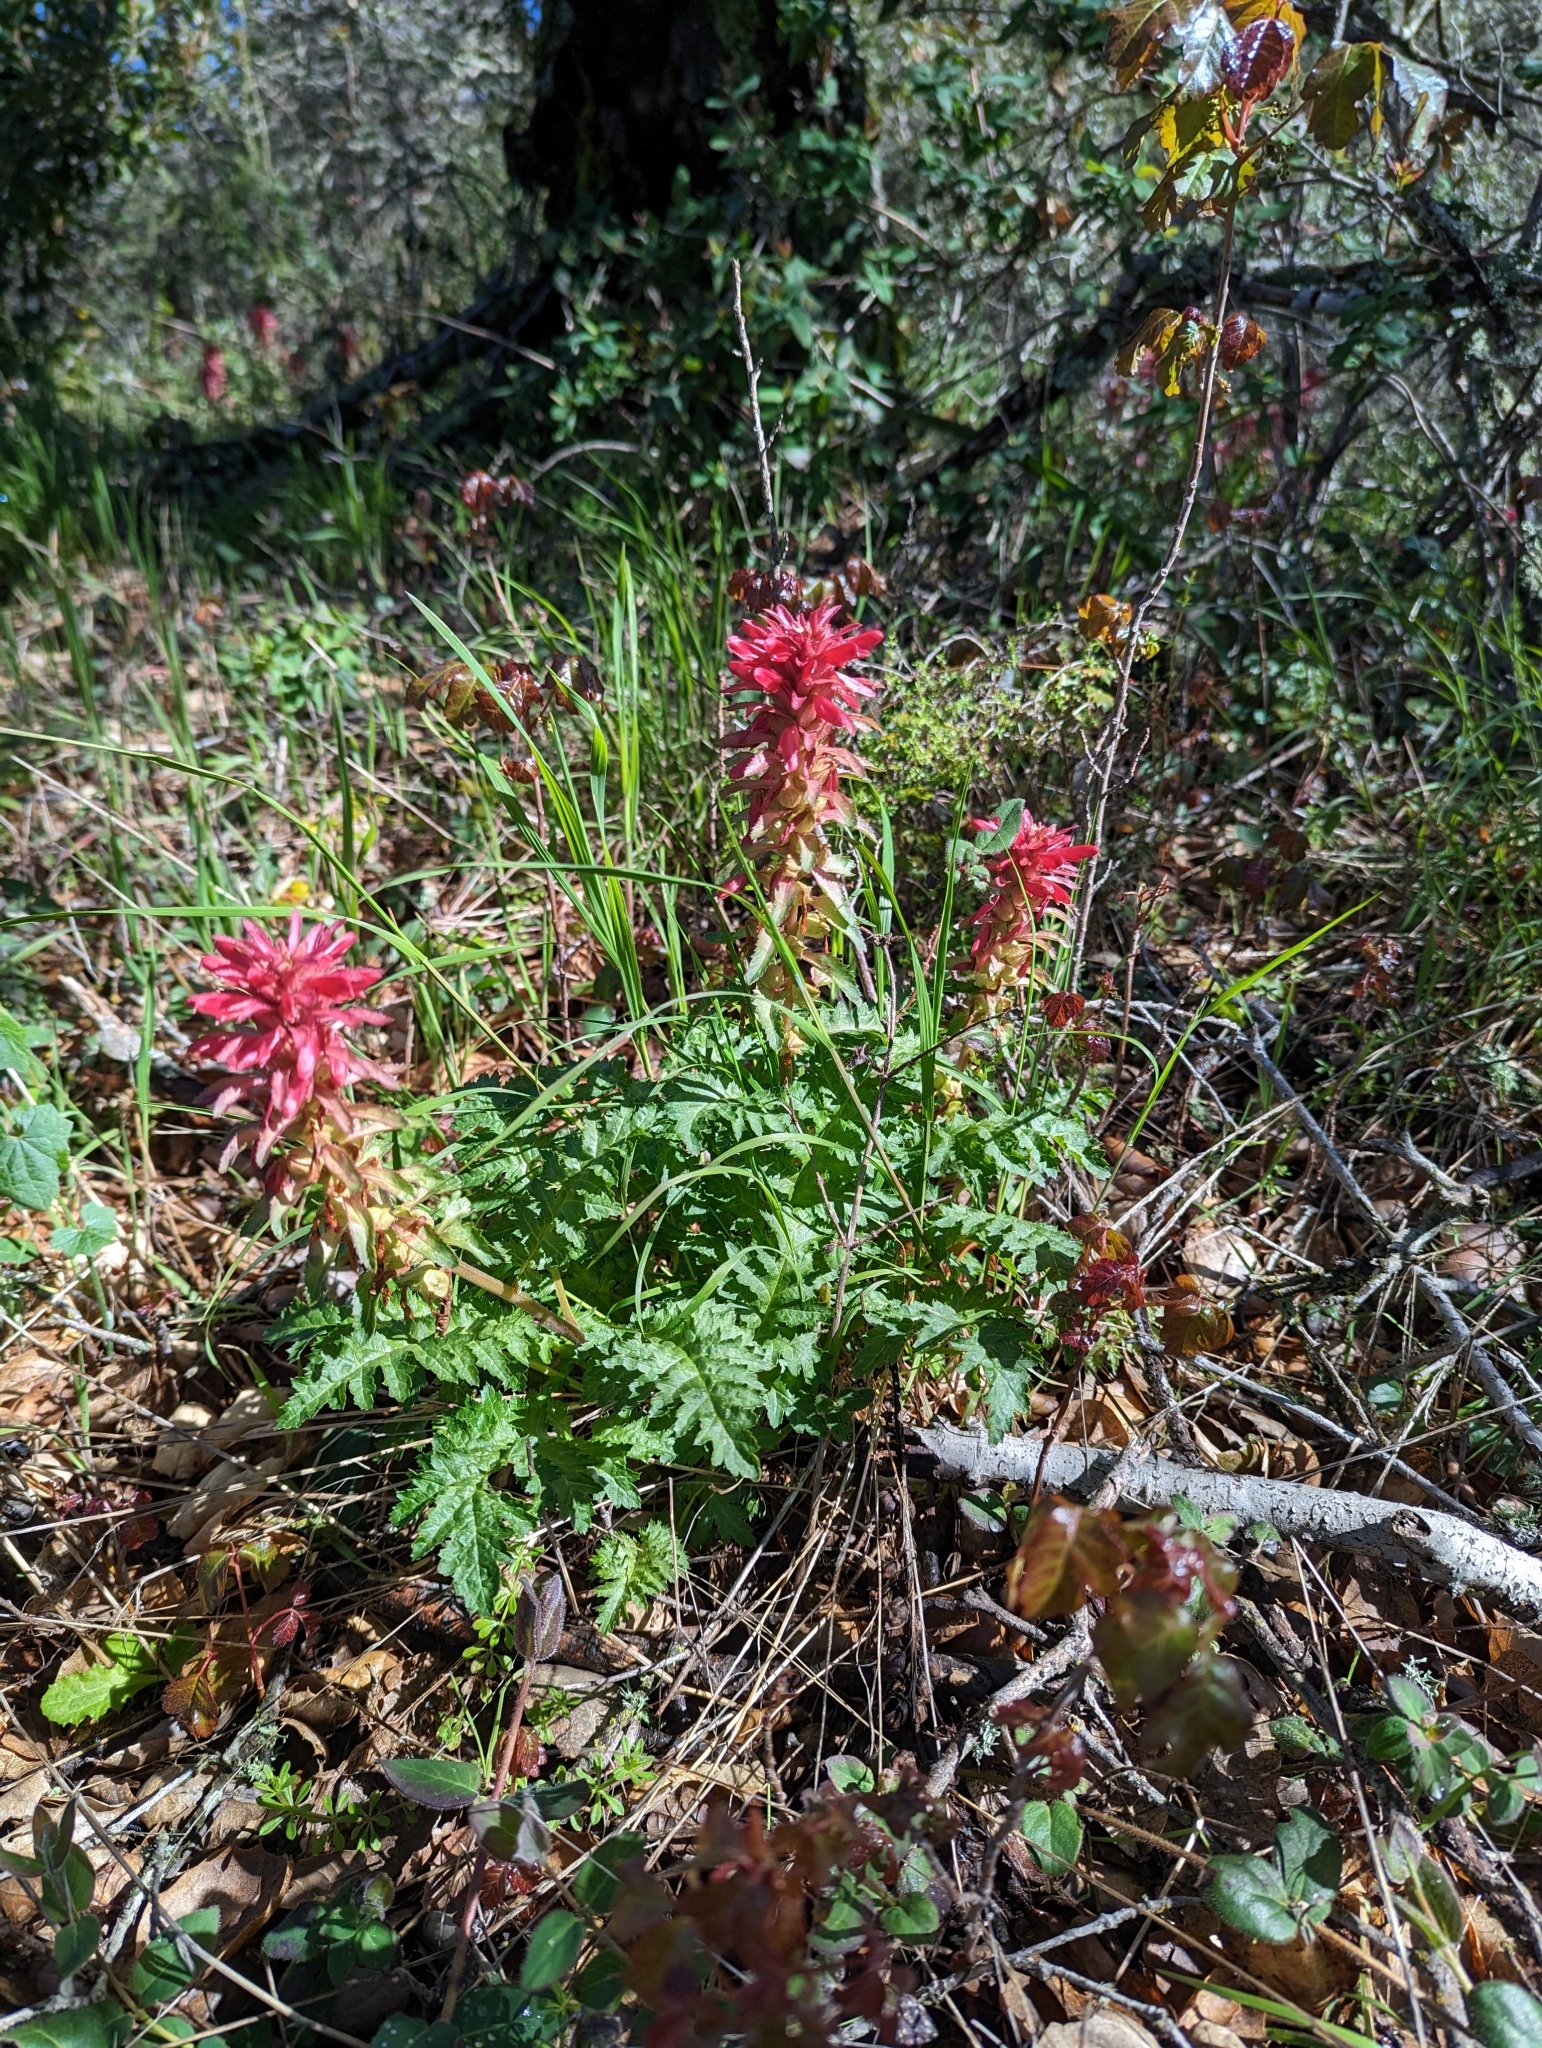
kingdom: Plantae
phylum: Tracheophyta
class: Magnoliopsida
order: Lamiales
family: Orobanchaceae
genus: Pedicularis
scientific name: Pedicularis densiflora
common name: Indian warrior
